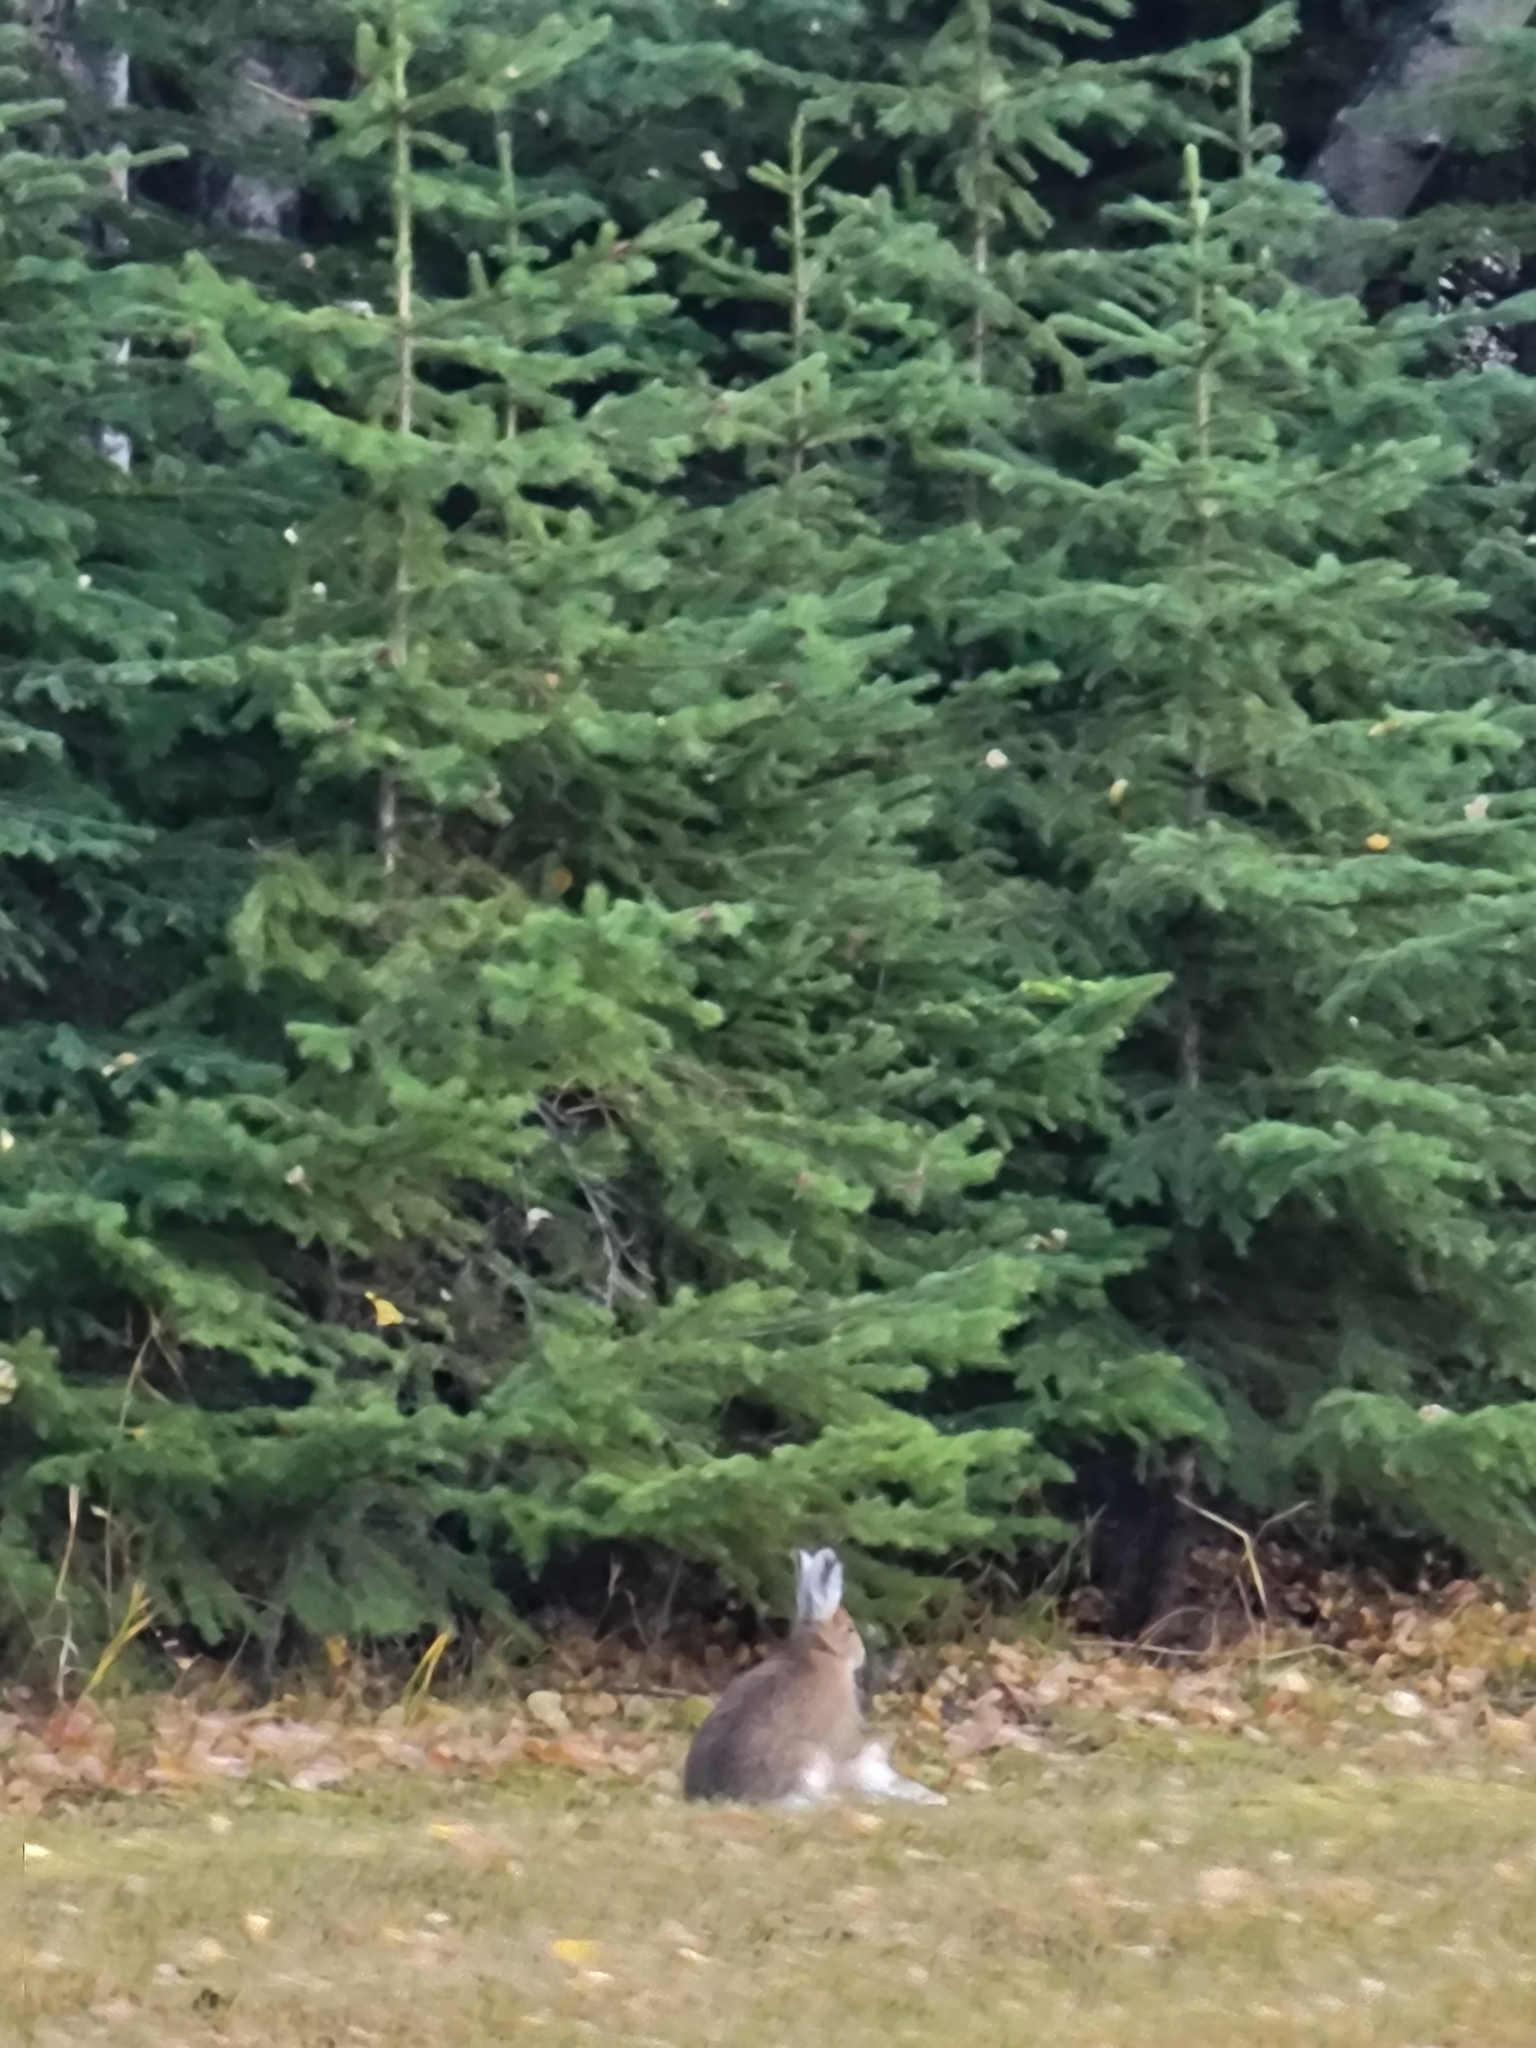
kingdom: Animalia
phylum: Chordata
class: Mammalia
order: Lagomorpha
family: Leporidae
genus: Lepus
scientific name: Lepus americanus
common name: Snowshoe hare
